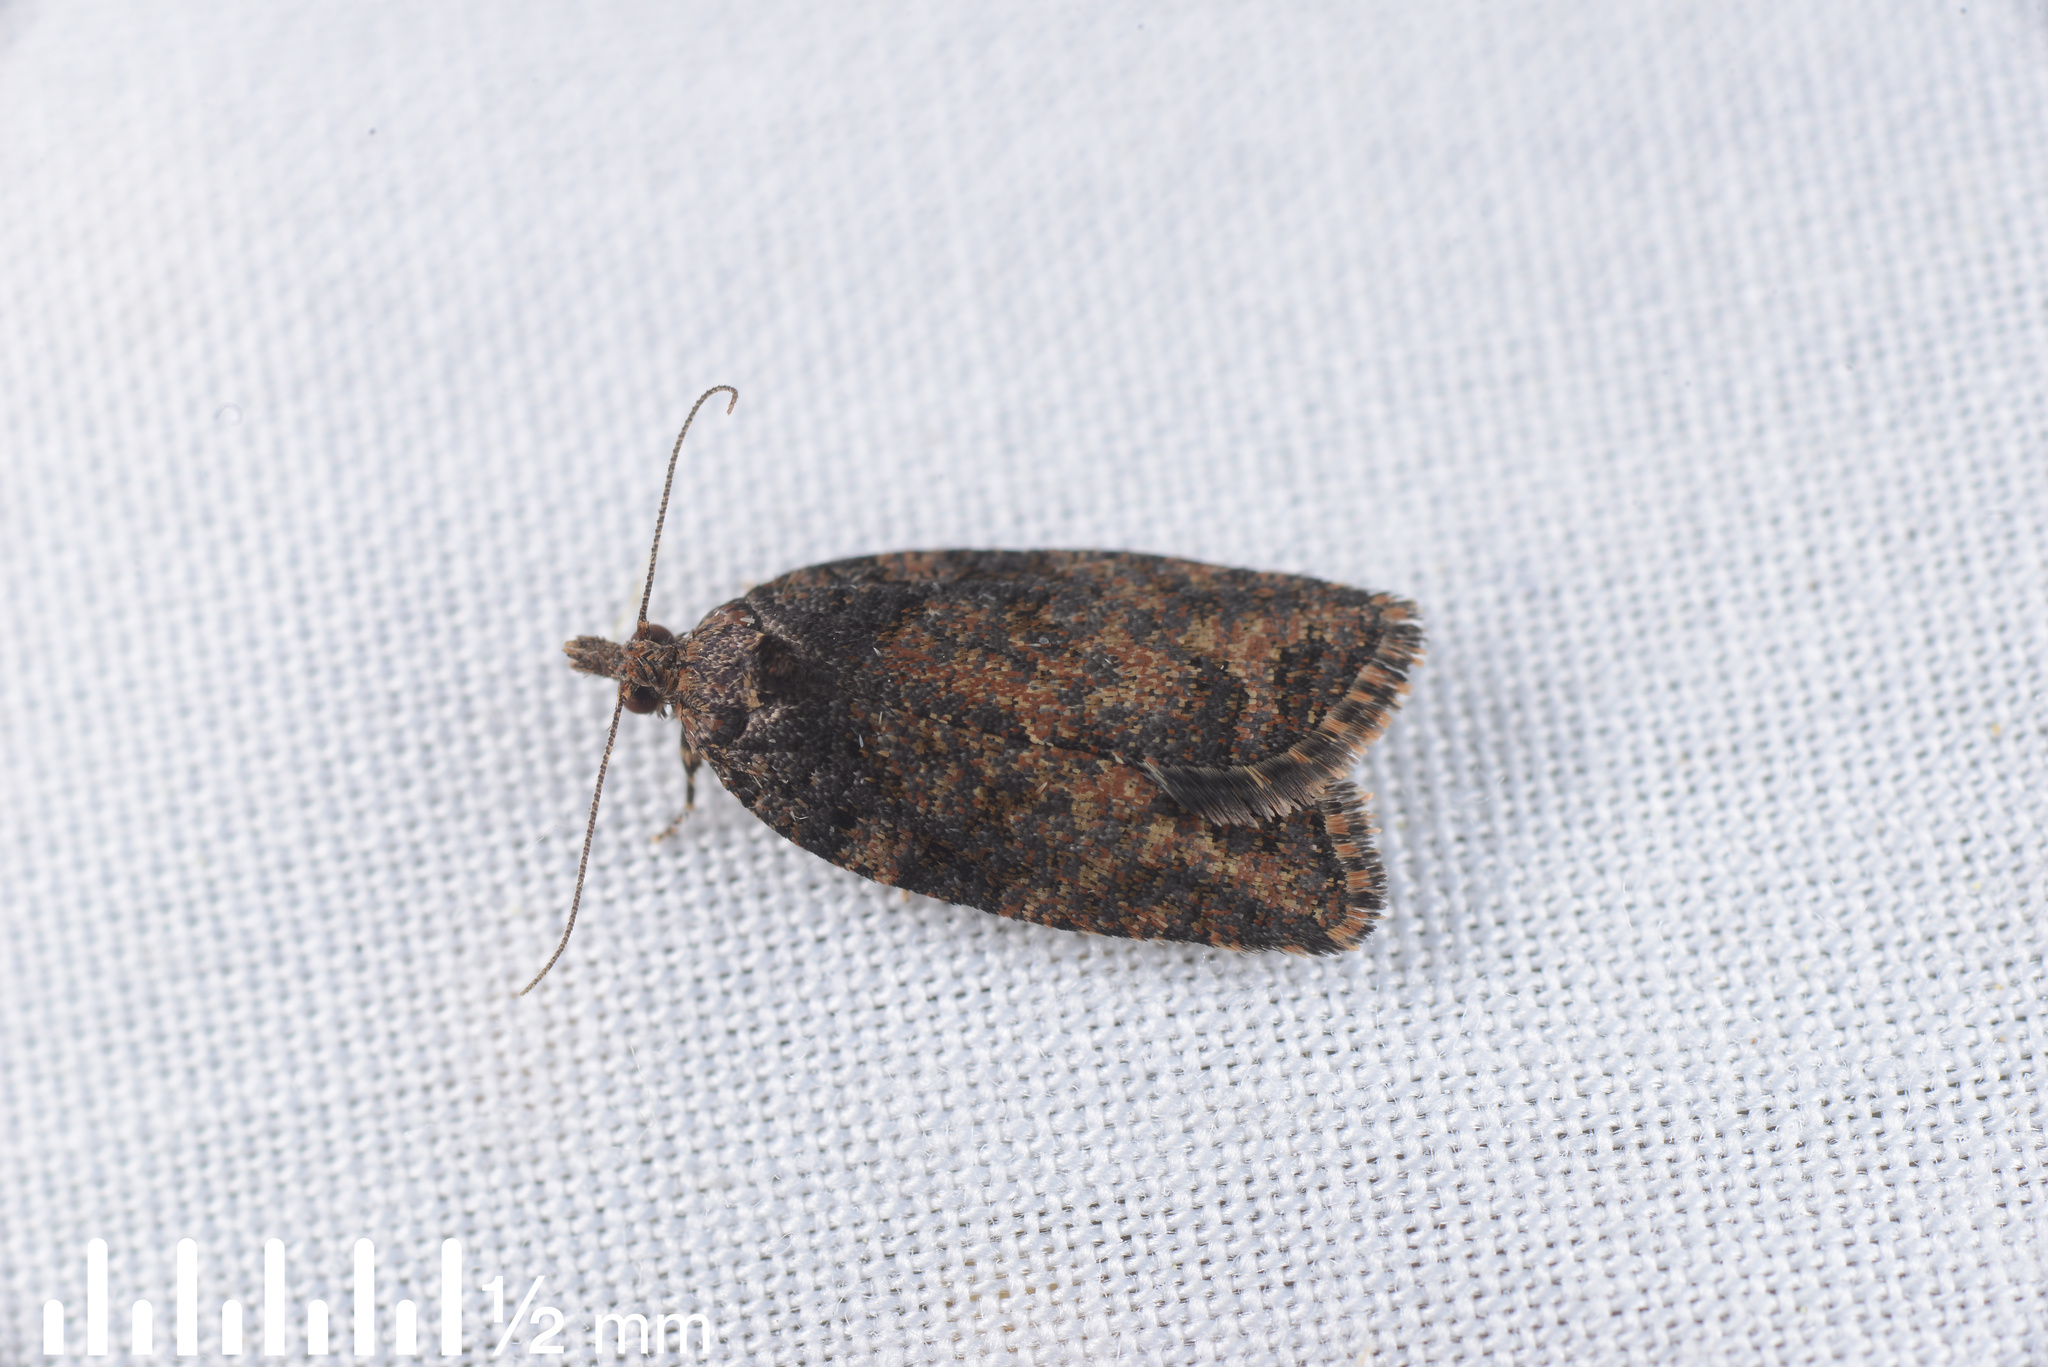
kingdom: Animalia
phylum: Arthropoda
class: Insecta
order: Lepidoptera
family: Tortricidae
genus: Capua
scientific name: Capua intractana
